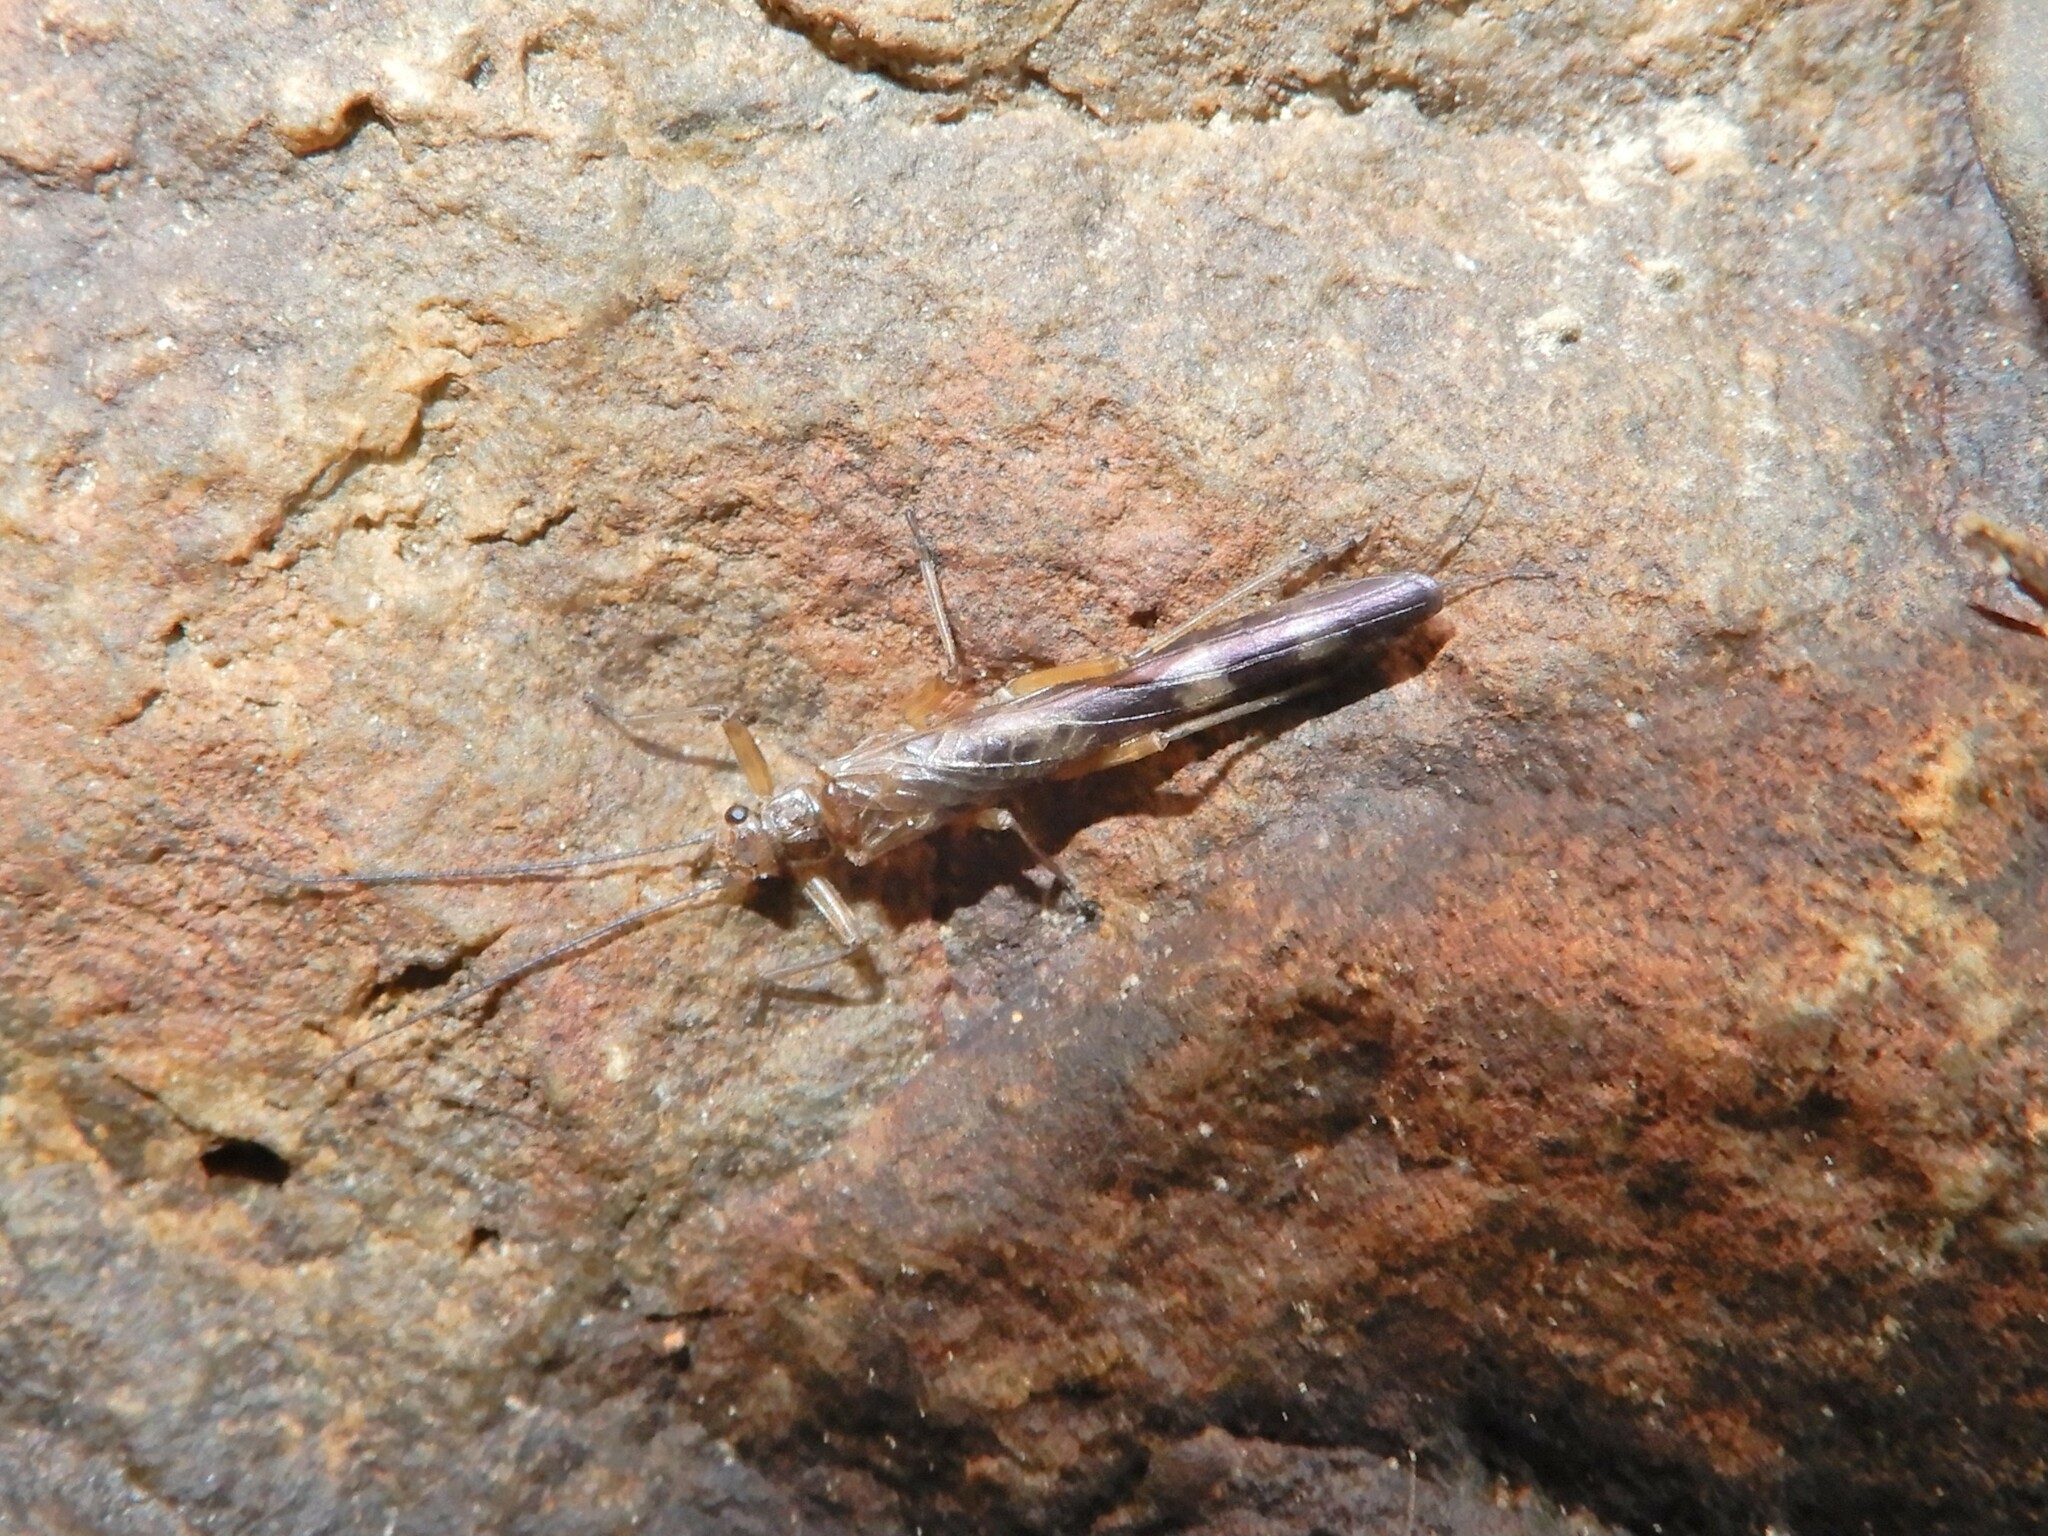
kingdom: Animalia
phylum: Arthropoda
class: Insecta
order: Plecoptera
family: Gripopterygidae
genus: Acroperla
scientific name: Acroperla trivacuata
